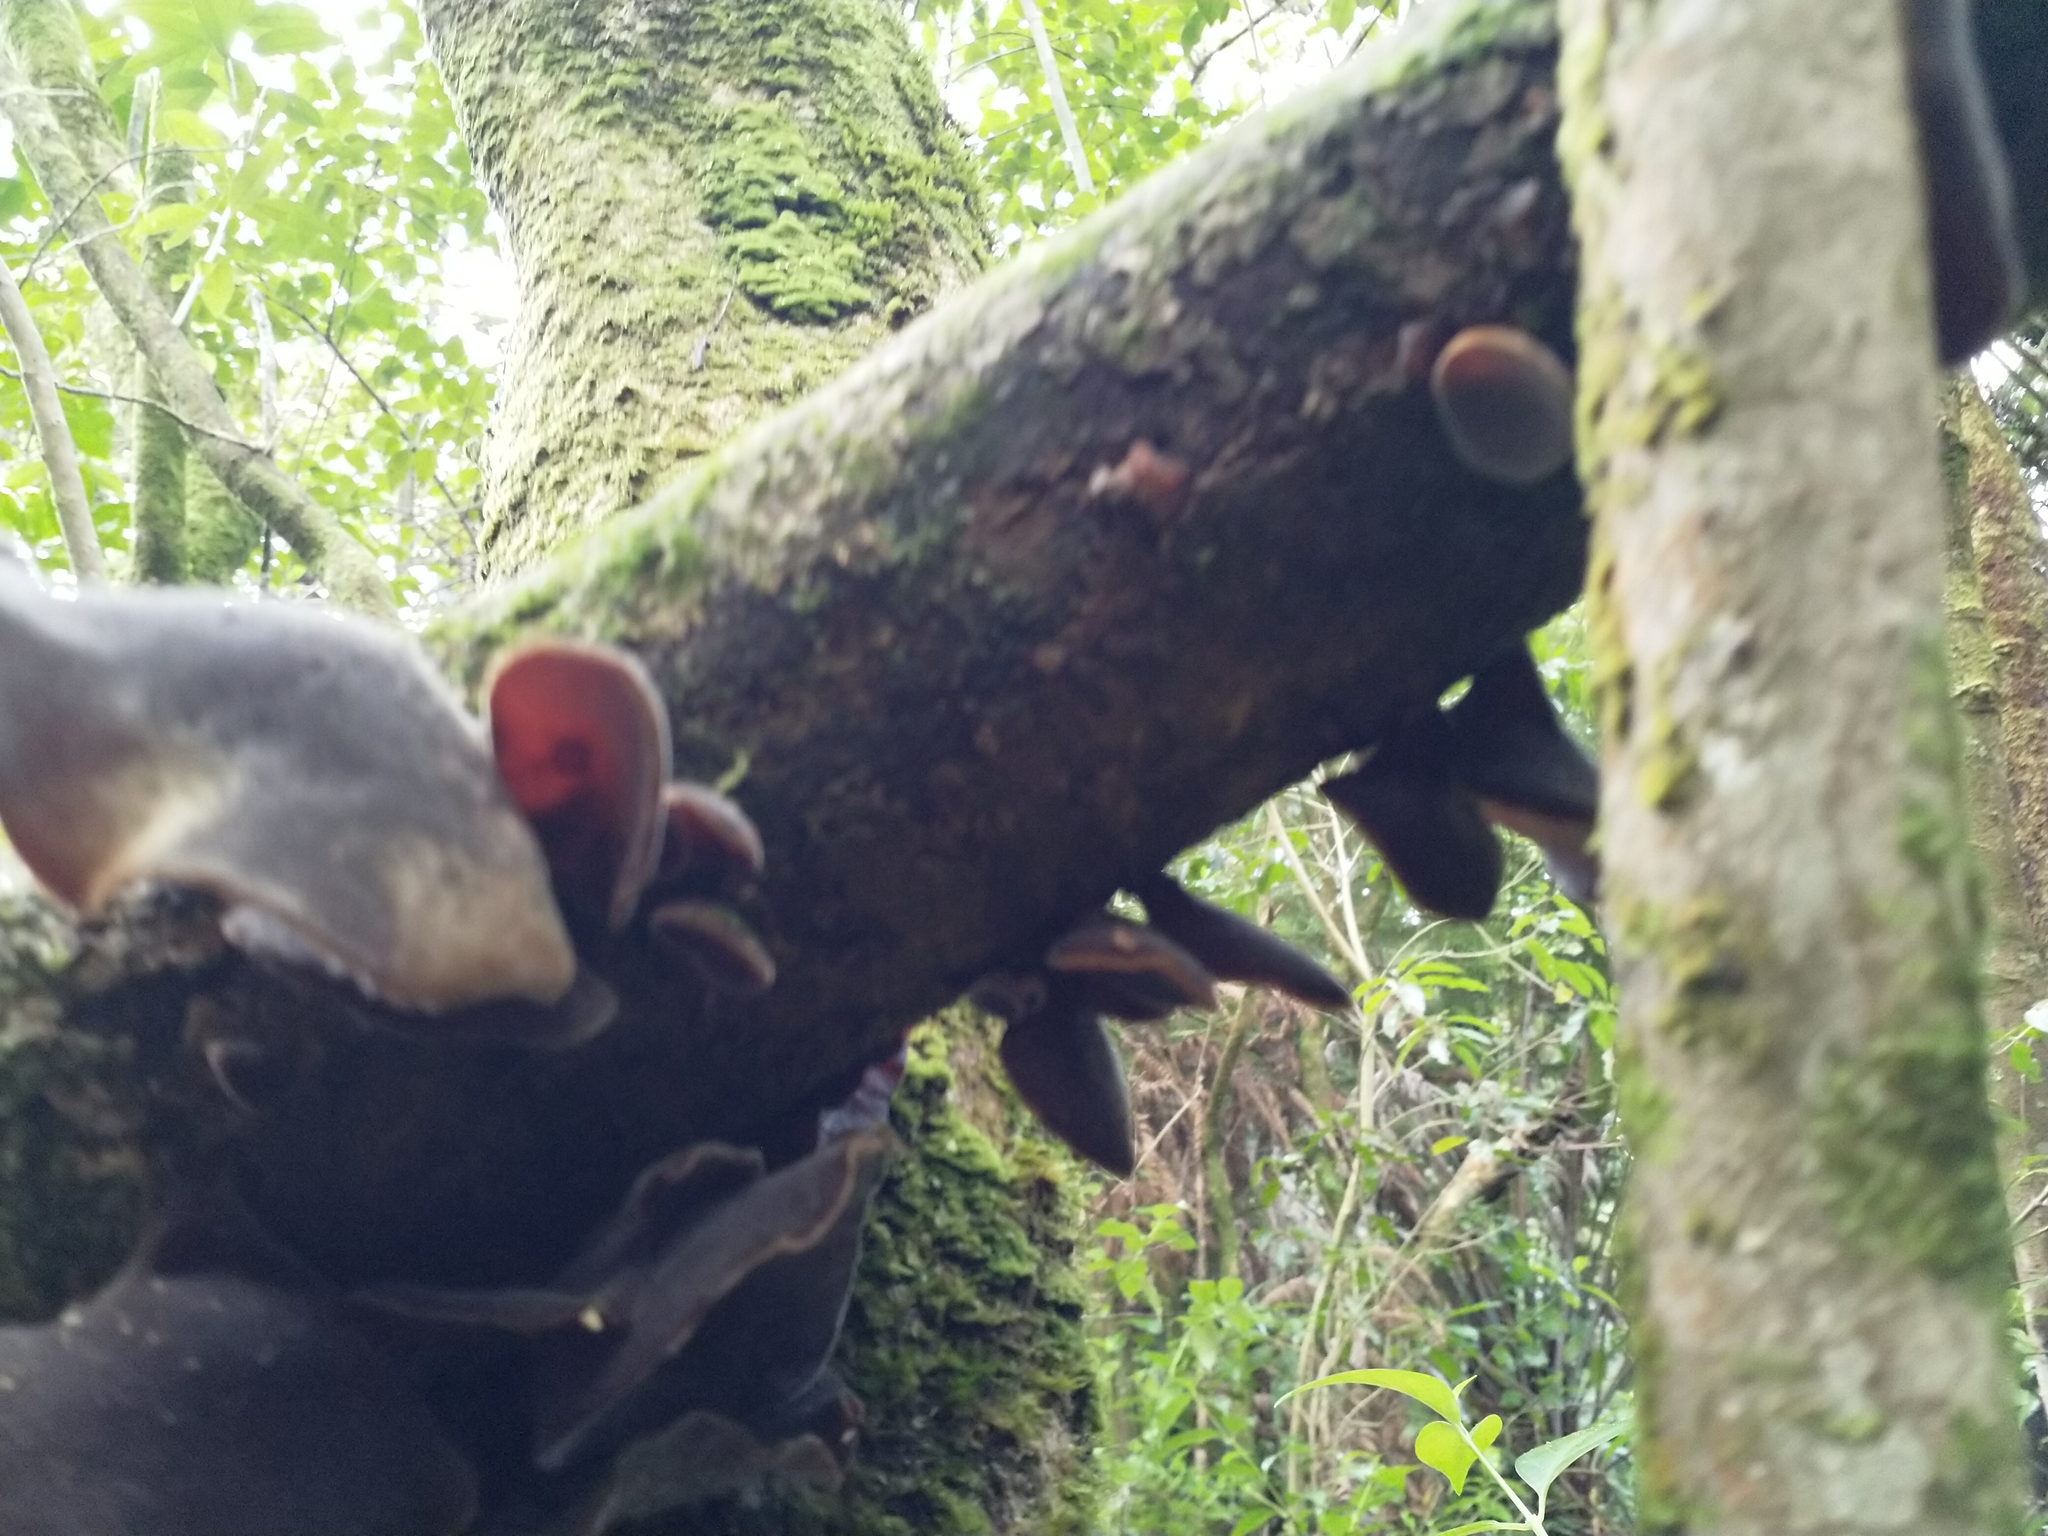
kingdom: Fungi
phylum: Basidiomycota
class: Agaricomycetes
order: Auriculariales
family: Auriculariaceae
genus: Auricularia
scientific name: Auricularia cornea
